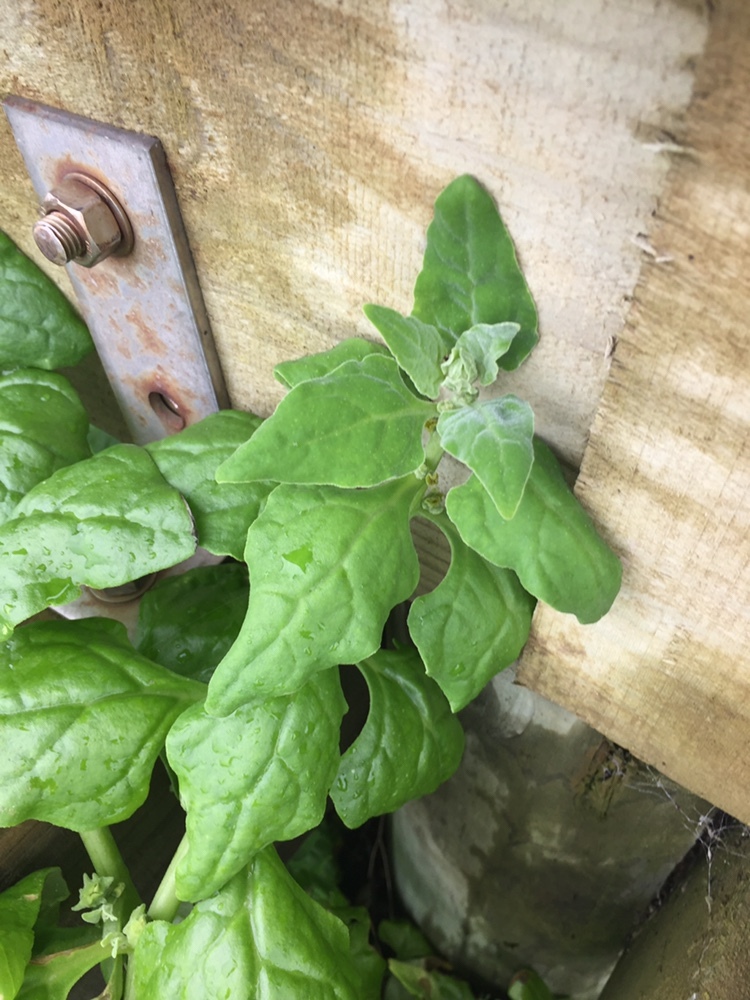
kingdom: Plantae
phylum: Tracheophyta
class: Magnoliopsida
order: Caryophyllales
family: Aizoaceae
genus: Tetragonia
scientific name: Tetragonia tetragonoides
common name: New zealand-spinach
